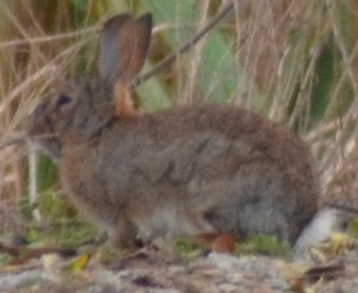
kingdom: Animalia
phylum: Chordata
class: Mammalia
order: Lagomorpha
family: Leporidae
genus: Oryctolagus
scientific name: Oryctolagus cuniculus
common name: European rabbit
